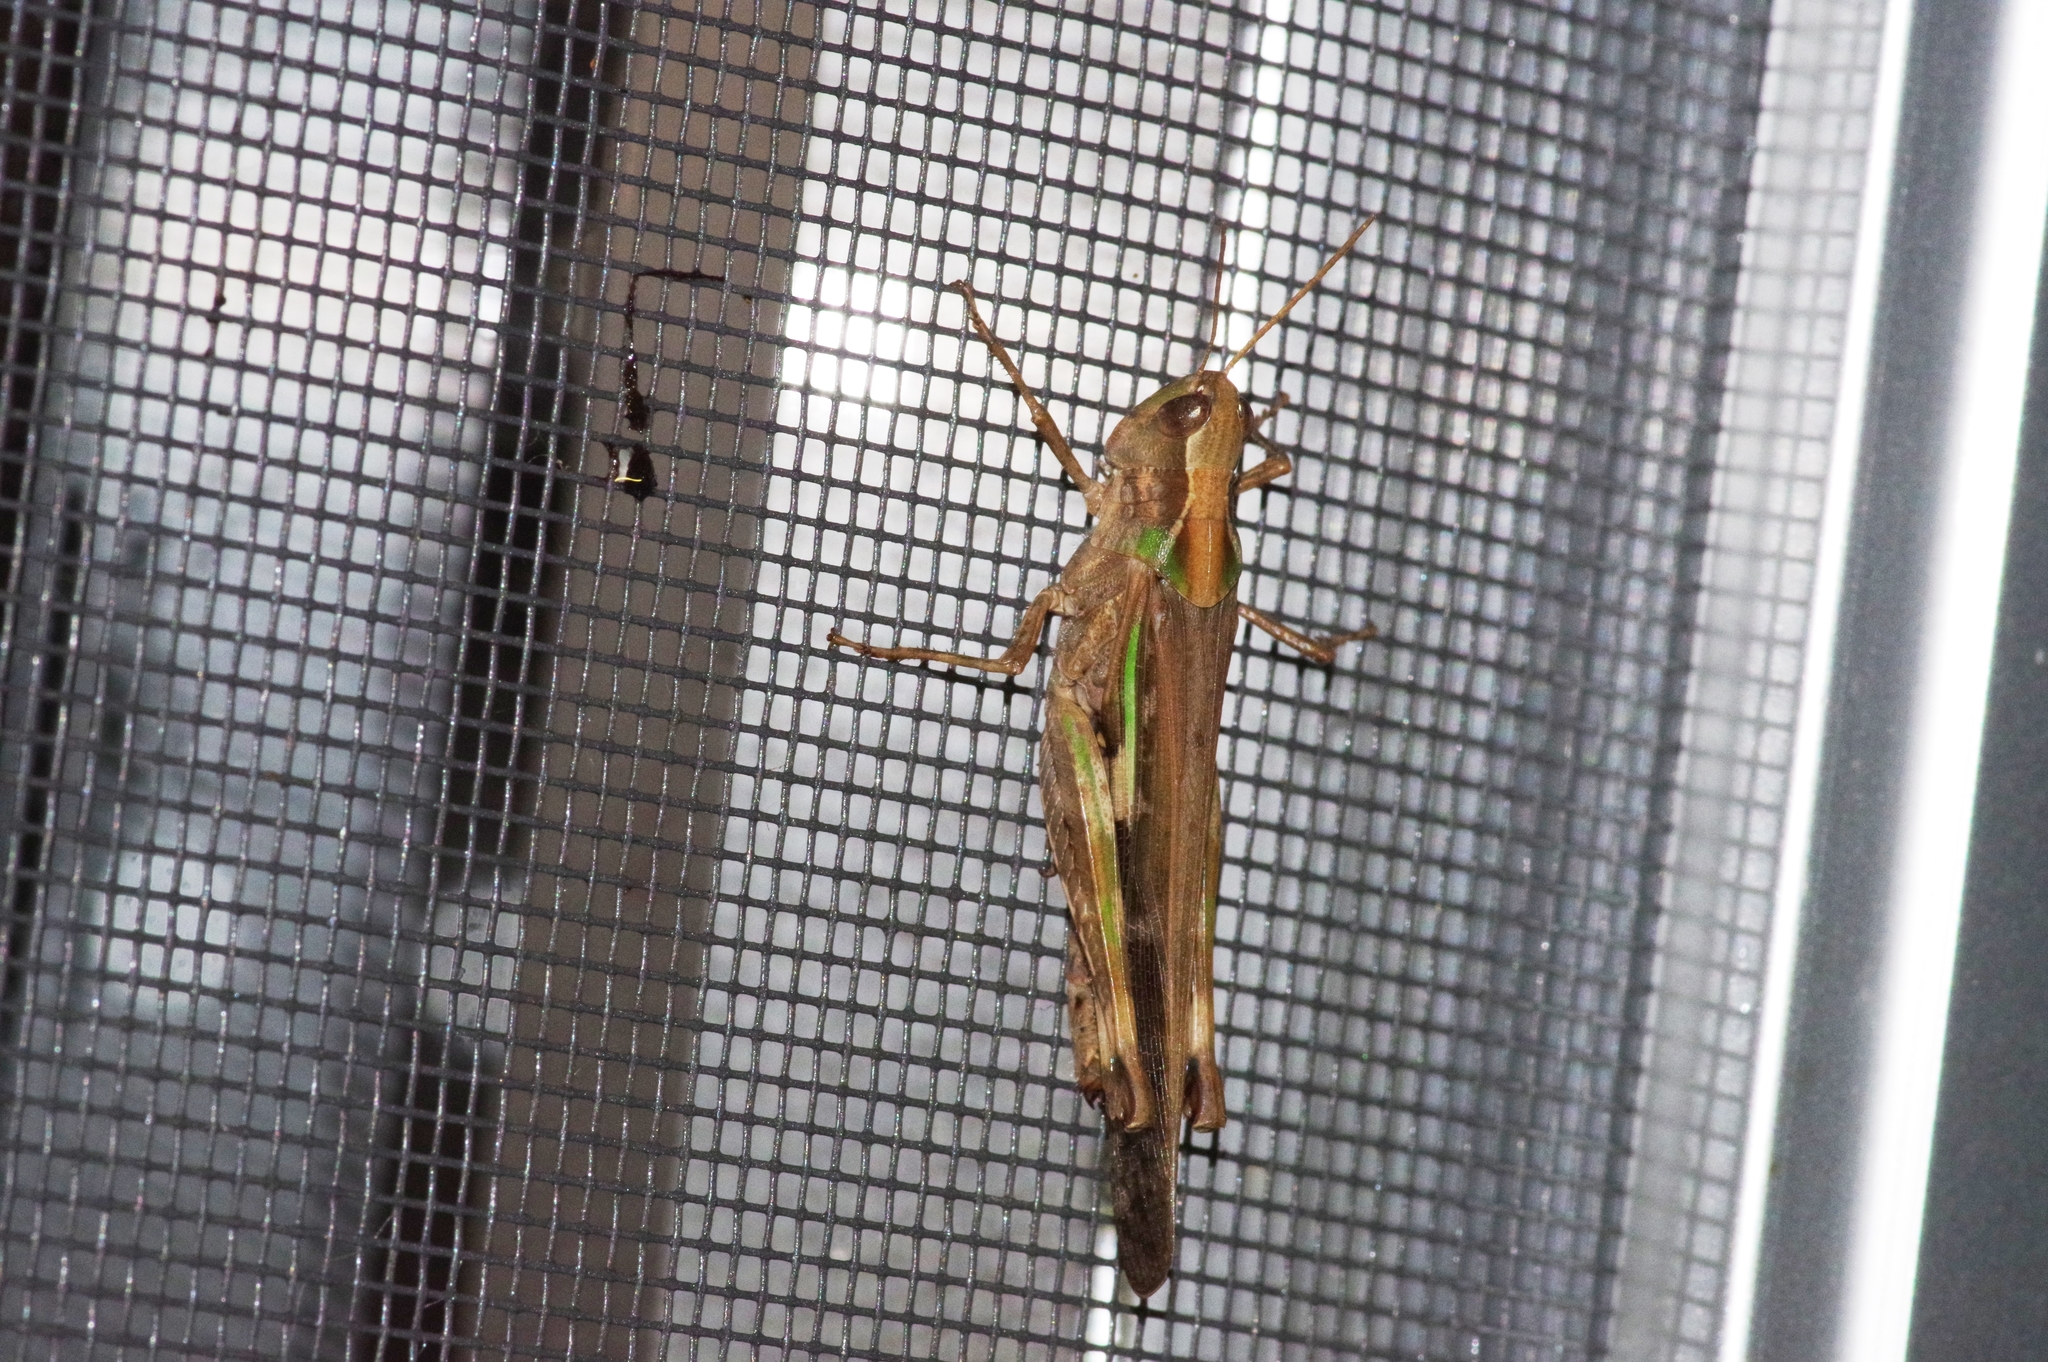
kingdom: Animalia
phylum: Arthropoda
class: Insecta
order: Orthoptera
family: Acrididae
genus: Aiolopus
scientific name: Aiolopus thalassinus
